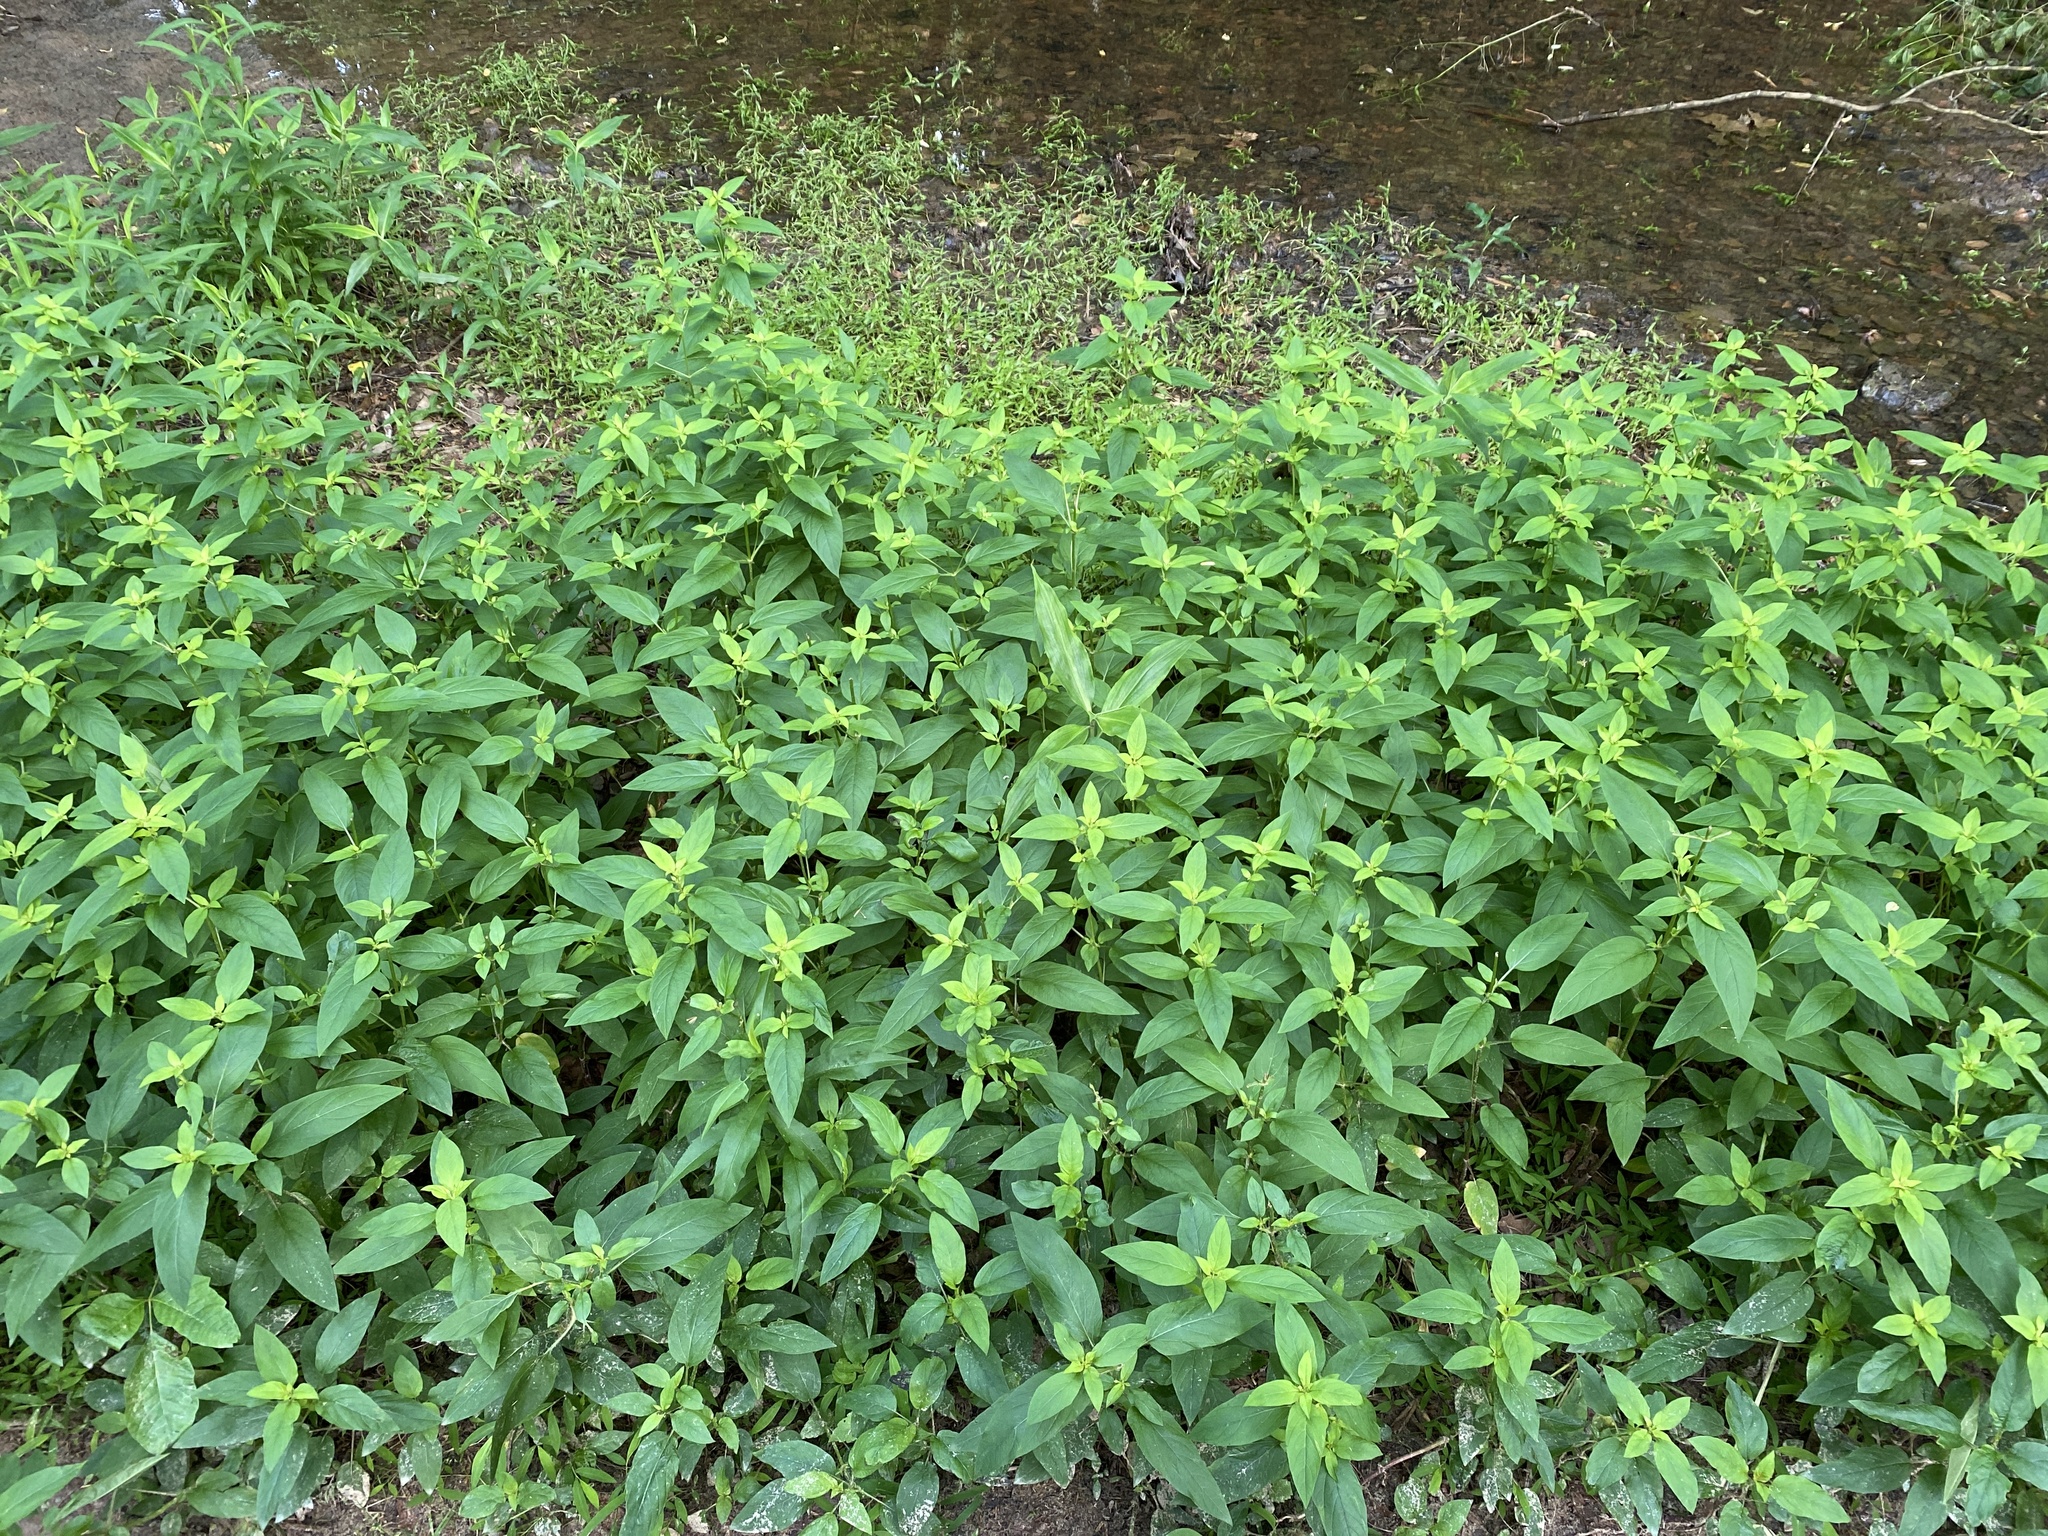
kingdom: Plantae
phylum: Tracheophyta
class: Magnoliopsida
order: Ericales
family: Primulaceae
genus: Lysimachia
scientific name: Lysimachia ciliata
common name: Fringed loosestrife
